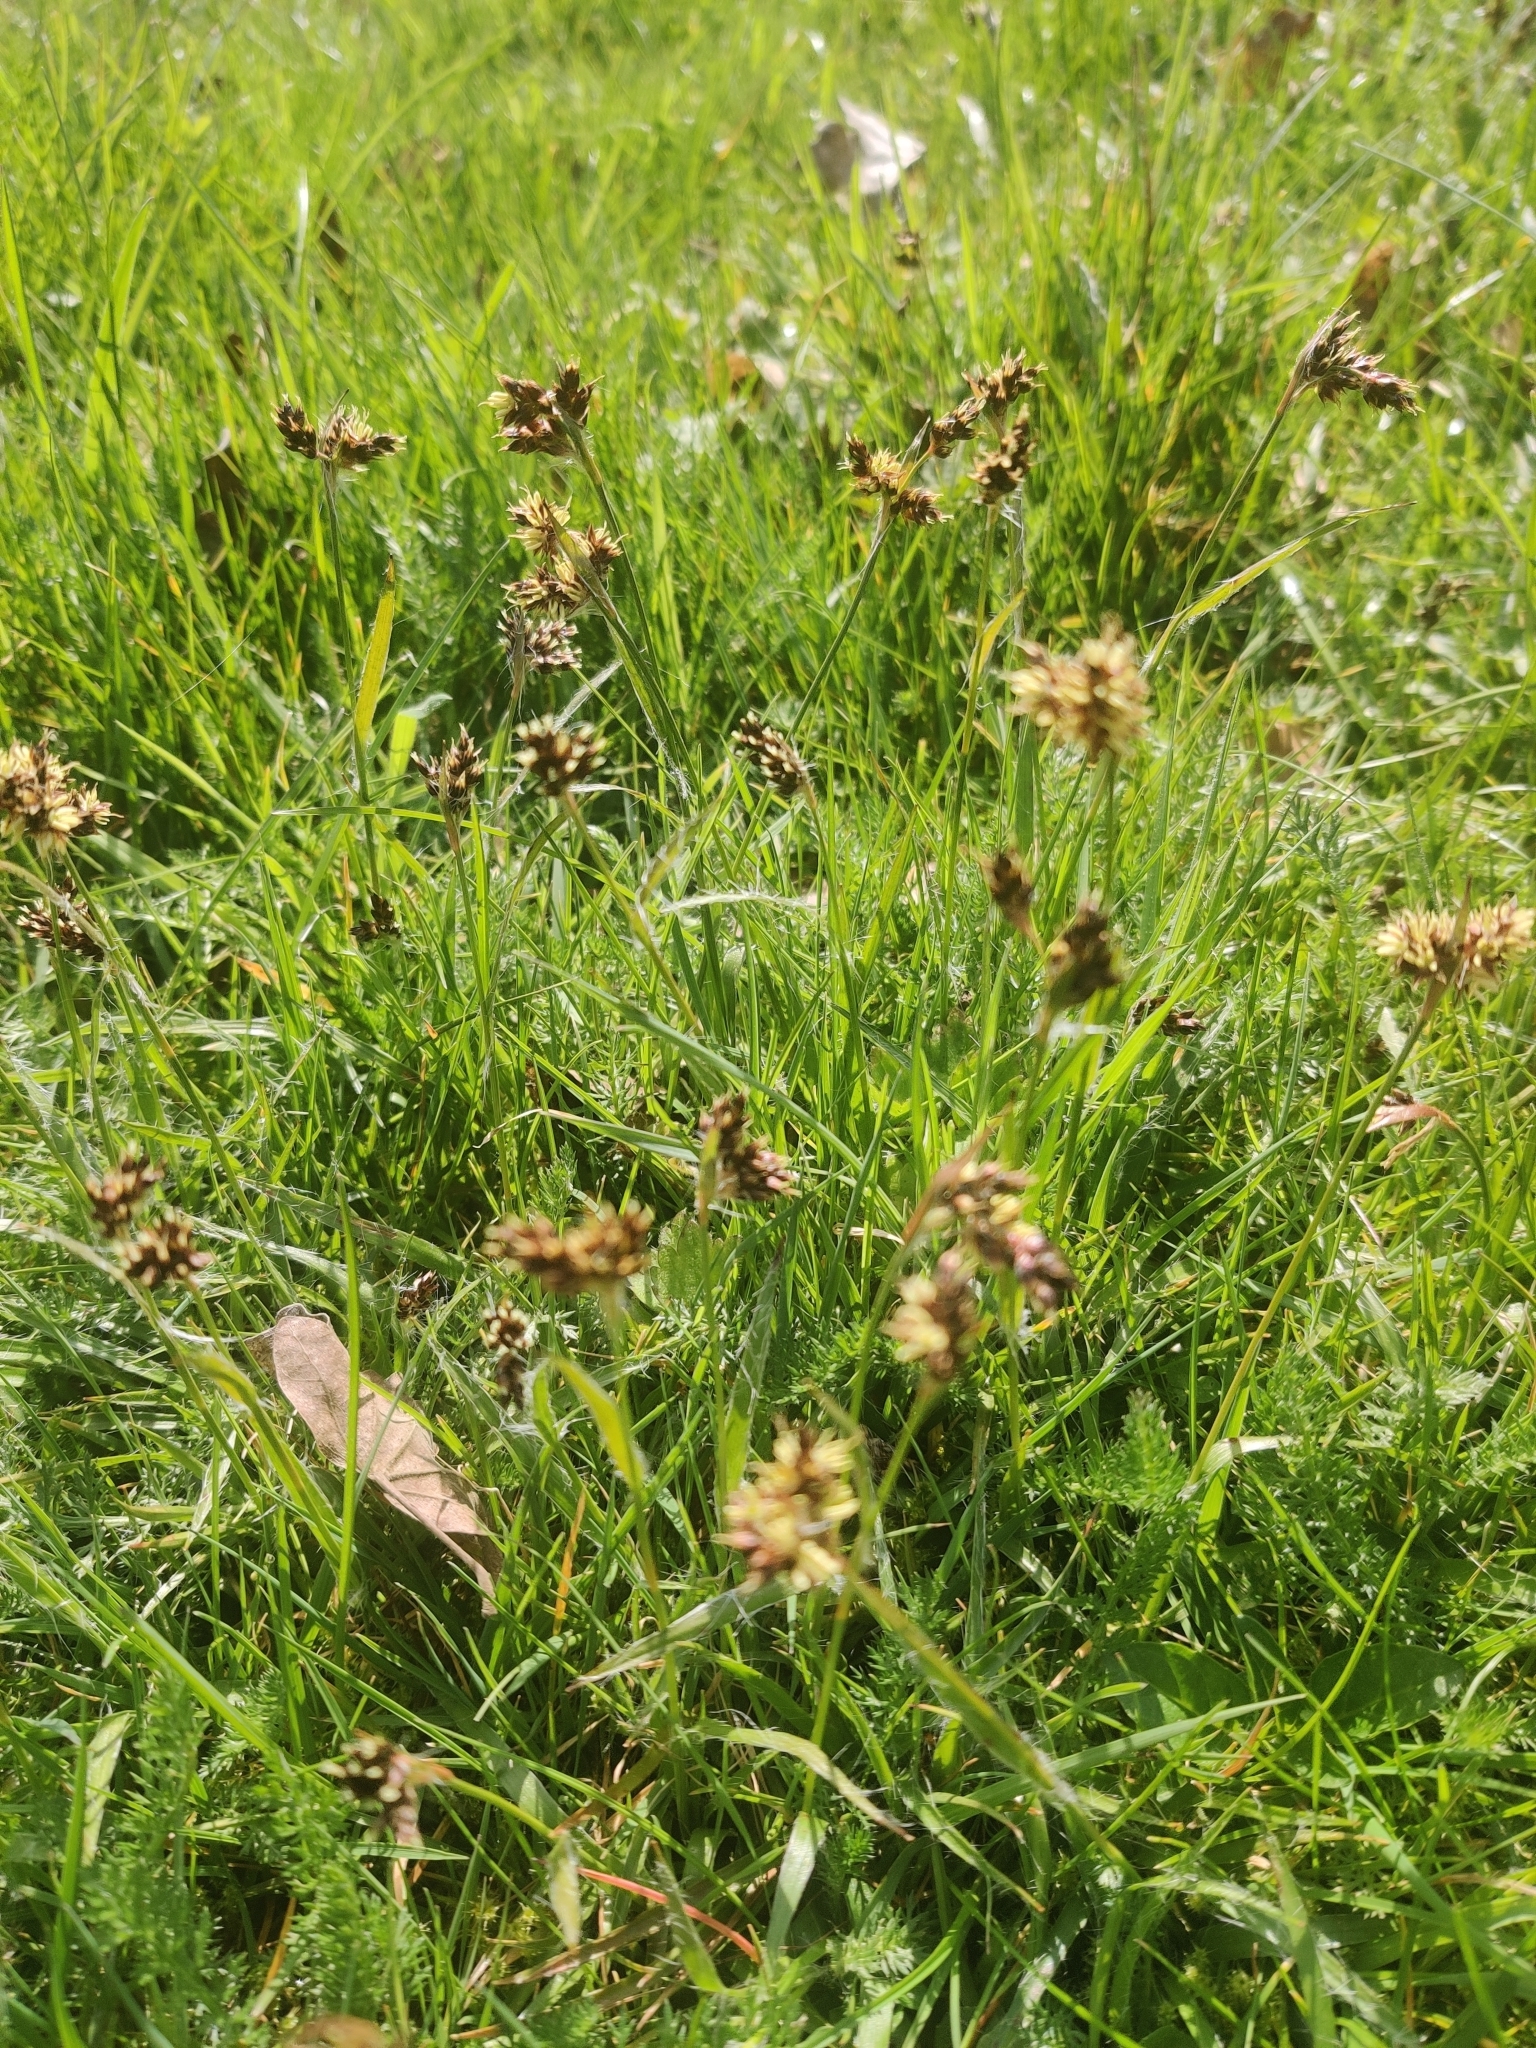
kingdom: Plantae
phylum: Tracheophyta
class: Liliopsida
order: Poales
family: Juncaceae
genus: Luzula
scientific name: Luzula campestris
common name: Field wood-rush
